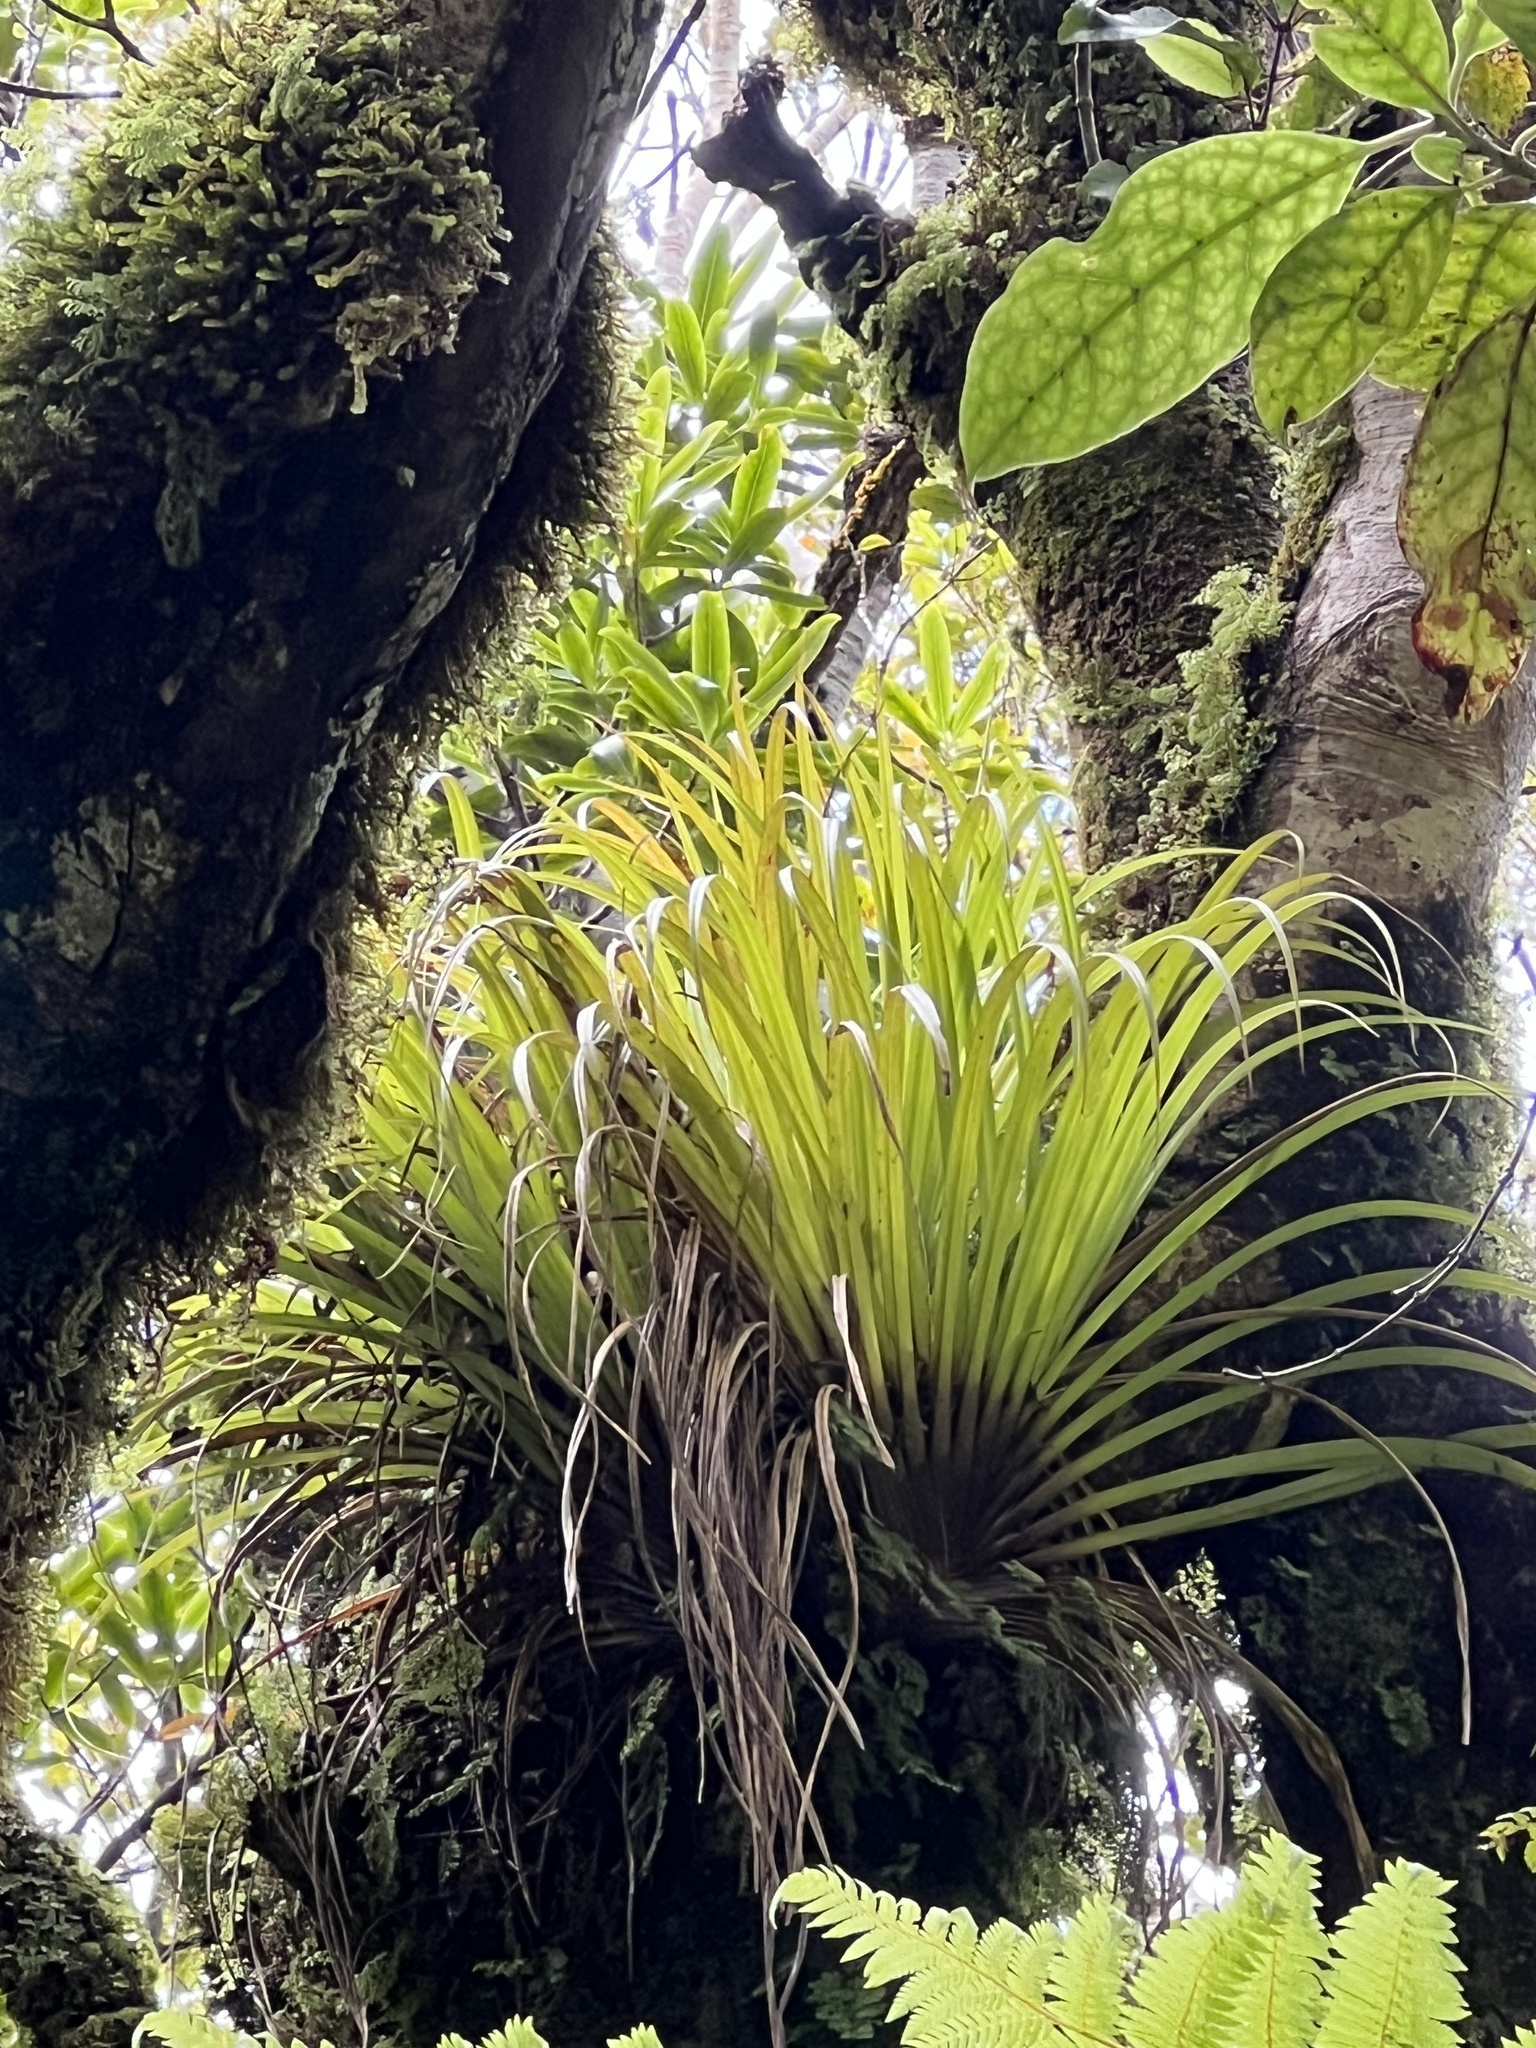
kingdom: Plantae
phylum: Tracheophyta
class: Liliopsida
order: Asparagales
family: Asteliaceae
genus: Astelia
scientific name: Astelia microsperma
